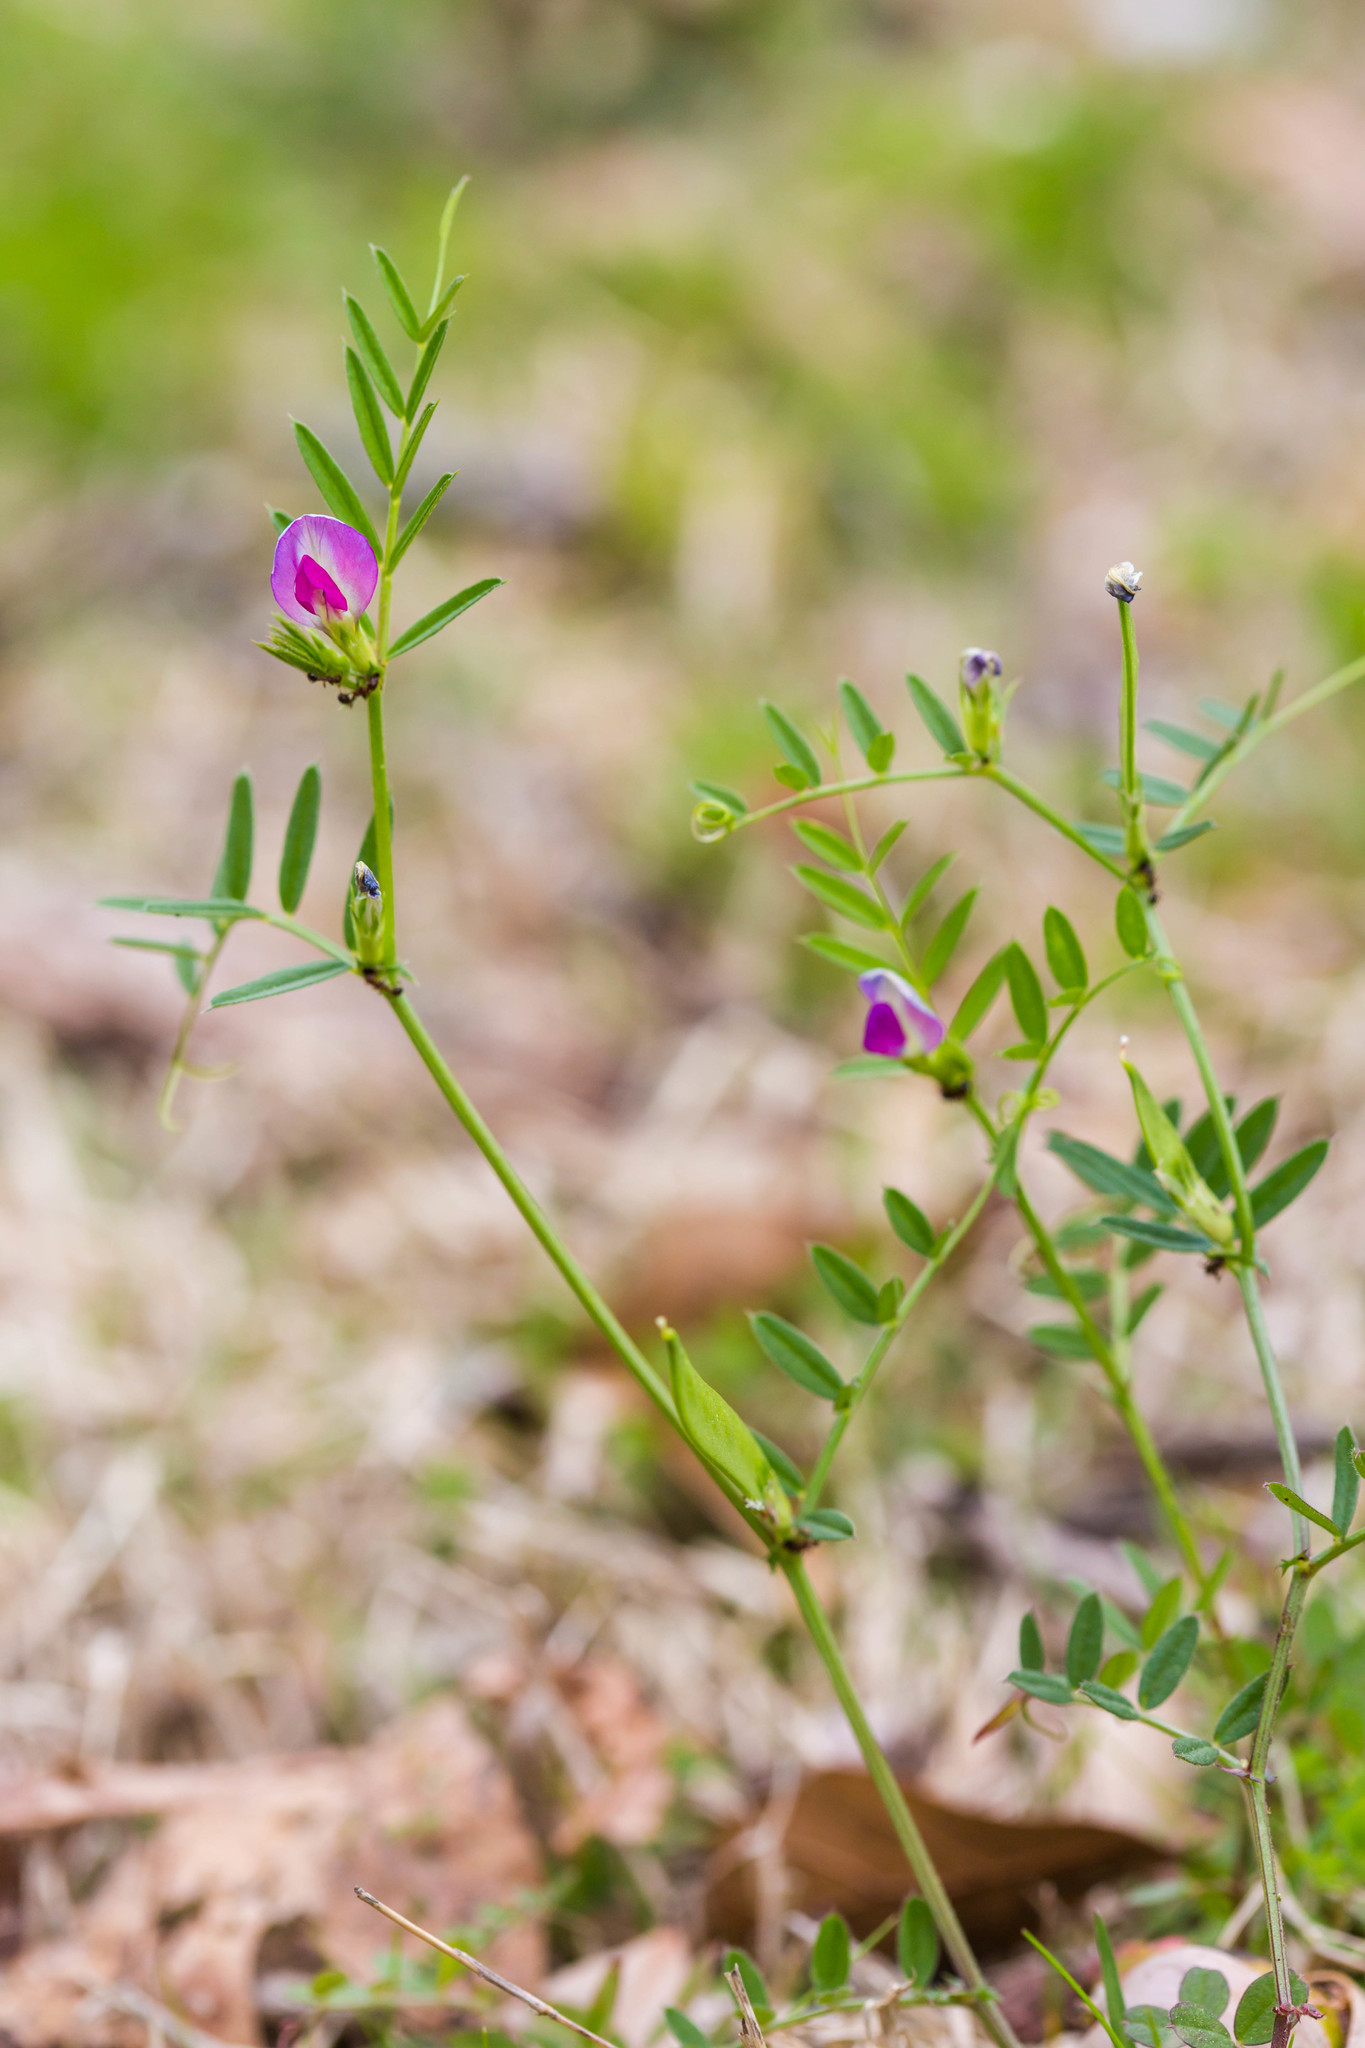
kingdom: Plantae
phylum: Tracheophyta
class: Magnoliopsida
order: Fabales
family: Fabaceae
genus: Vicia
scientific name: Vicia sativa
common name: Garden vetch
